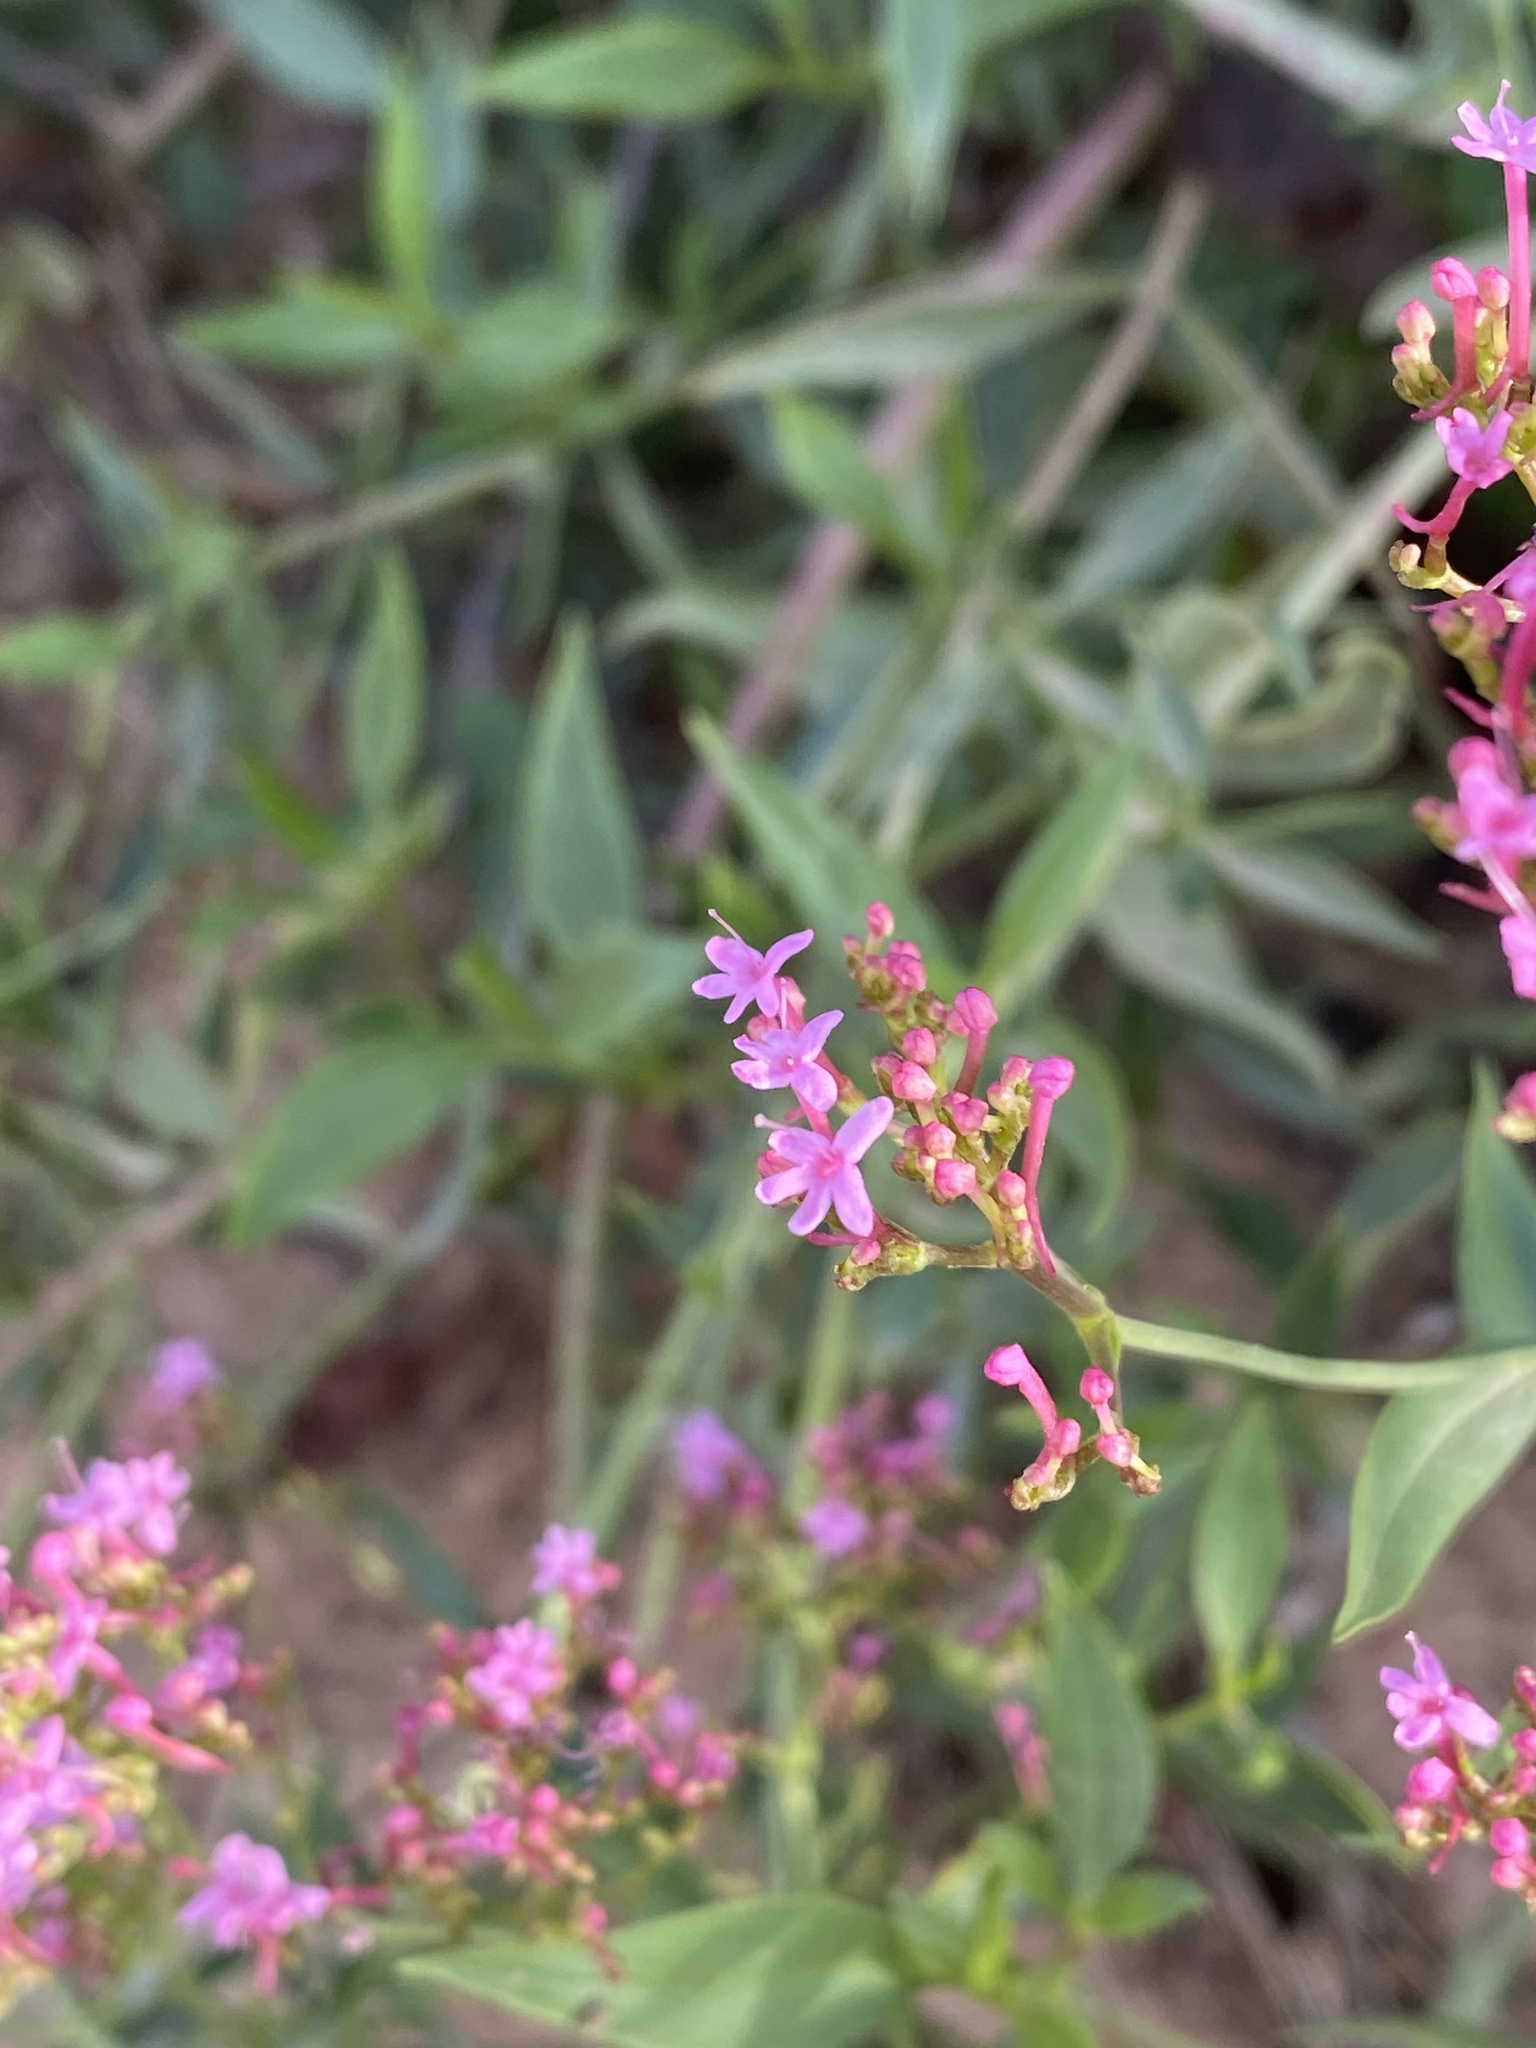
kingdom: Plantae
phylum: Tracheophyta
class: Magnoliopsida
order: Dipsacales
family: Caprifoliaceae
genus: Centranthus
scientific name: Centranthus ruber
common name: Red valerian
